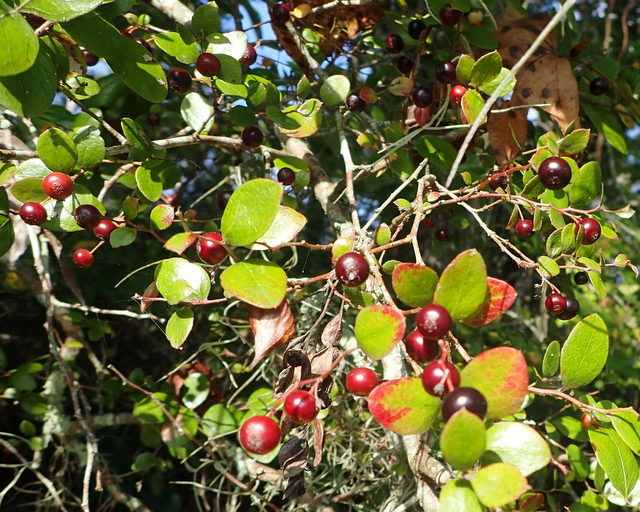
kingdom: Plantae
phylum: Tracheophyta
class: Magnoliopsida
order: Ericales
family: Ericaceae
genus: Vaccinium
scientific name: Vaccinium arboreum
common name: Farkleberry
